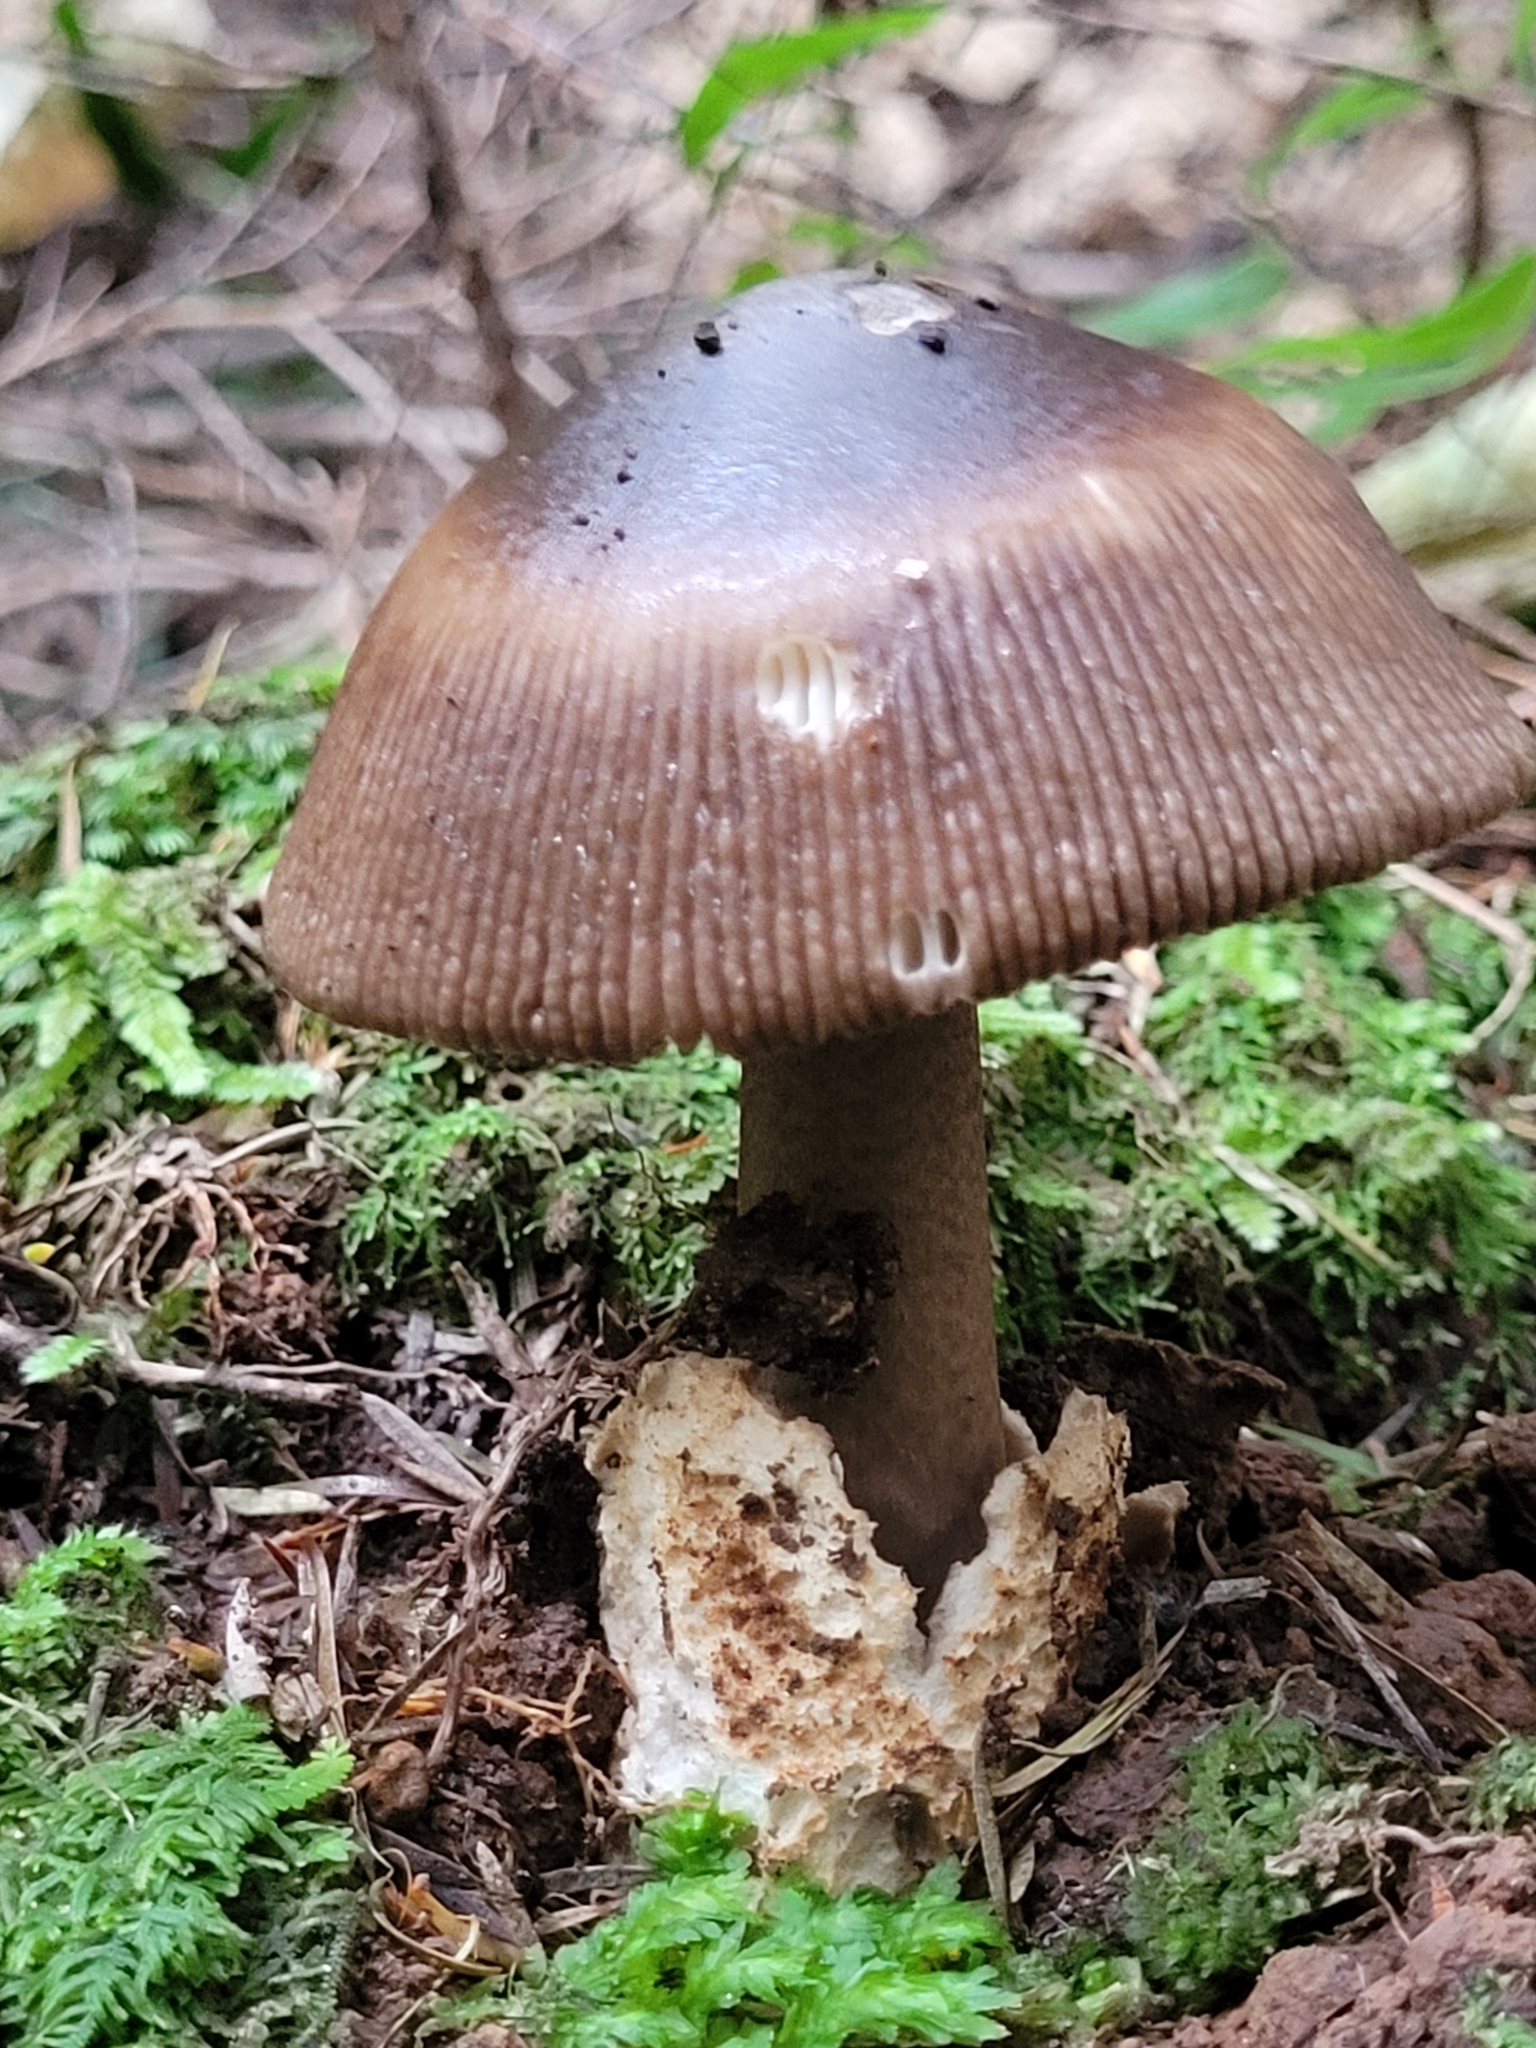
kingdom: Fungi
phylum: Basidiomycota
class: Agaricomycetes
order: Agaricales
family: Amanitaceae
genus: Amanita
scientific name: Amanita pekeoides
